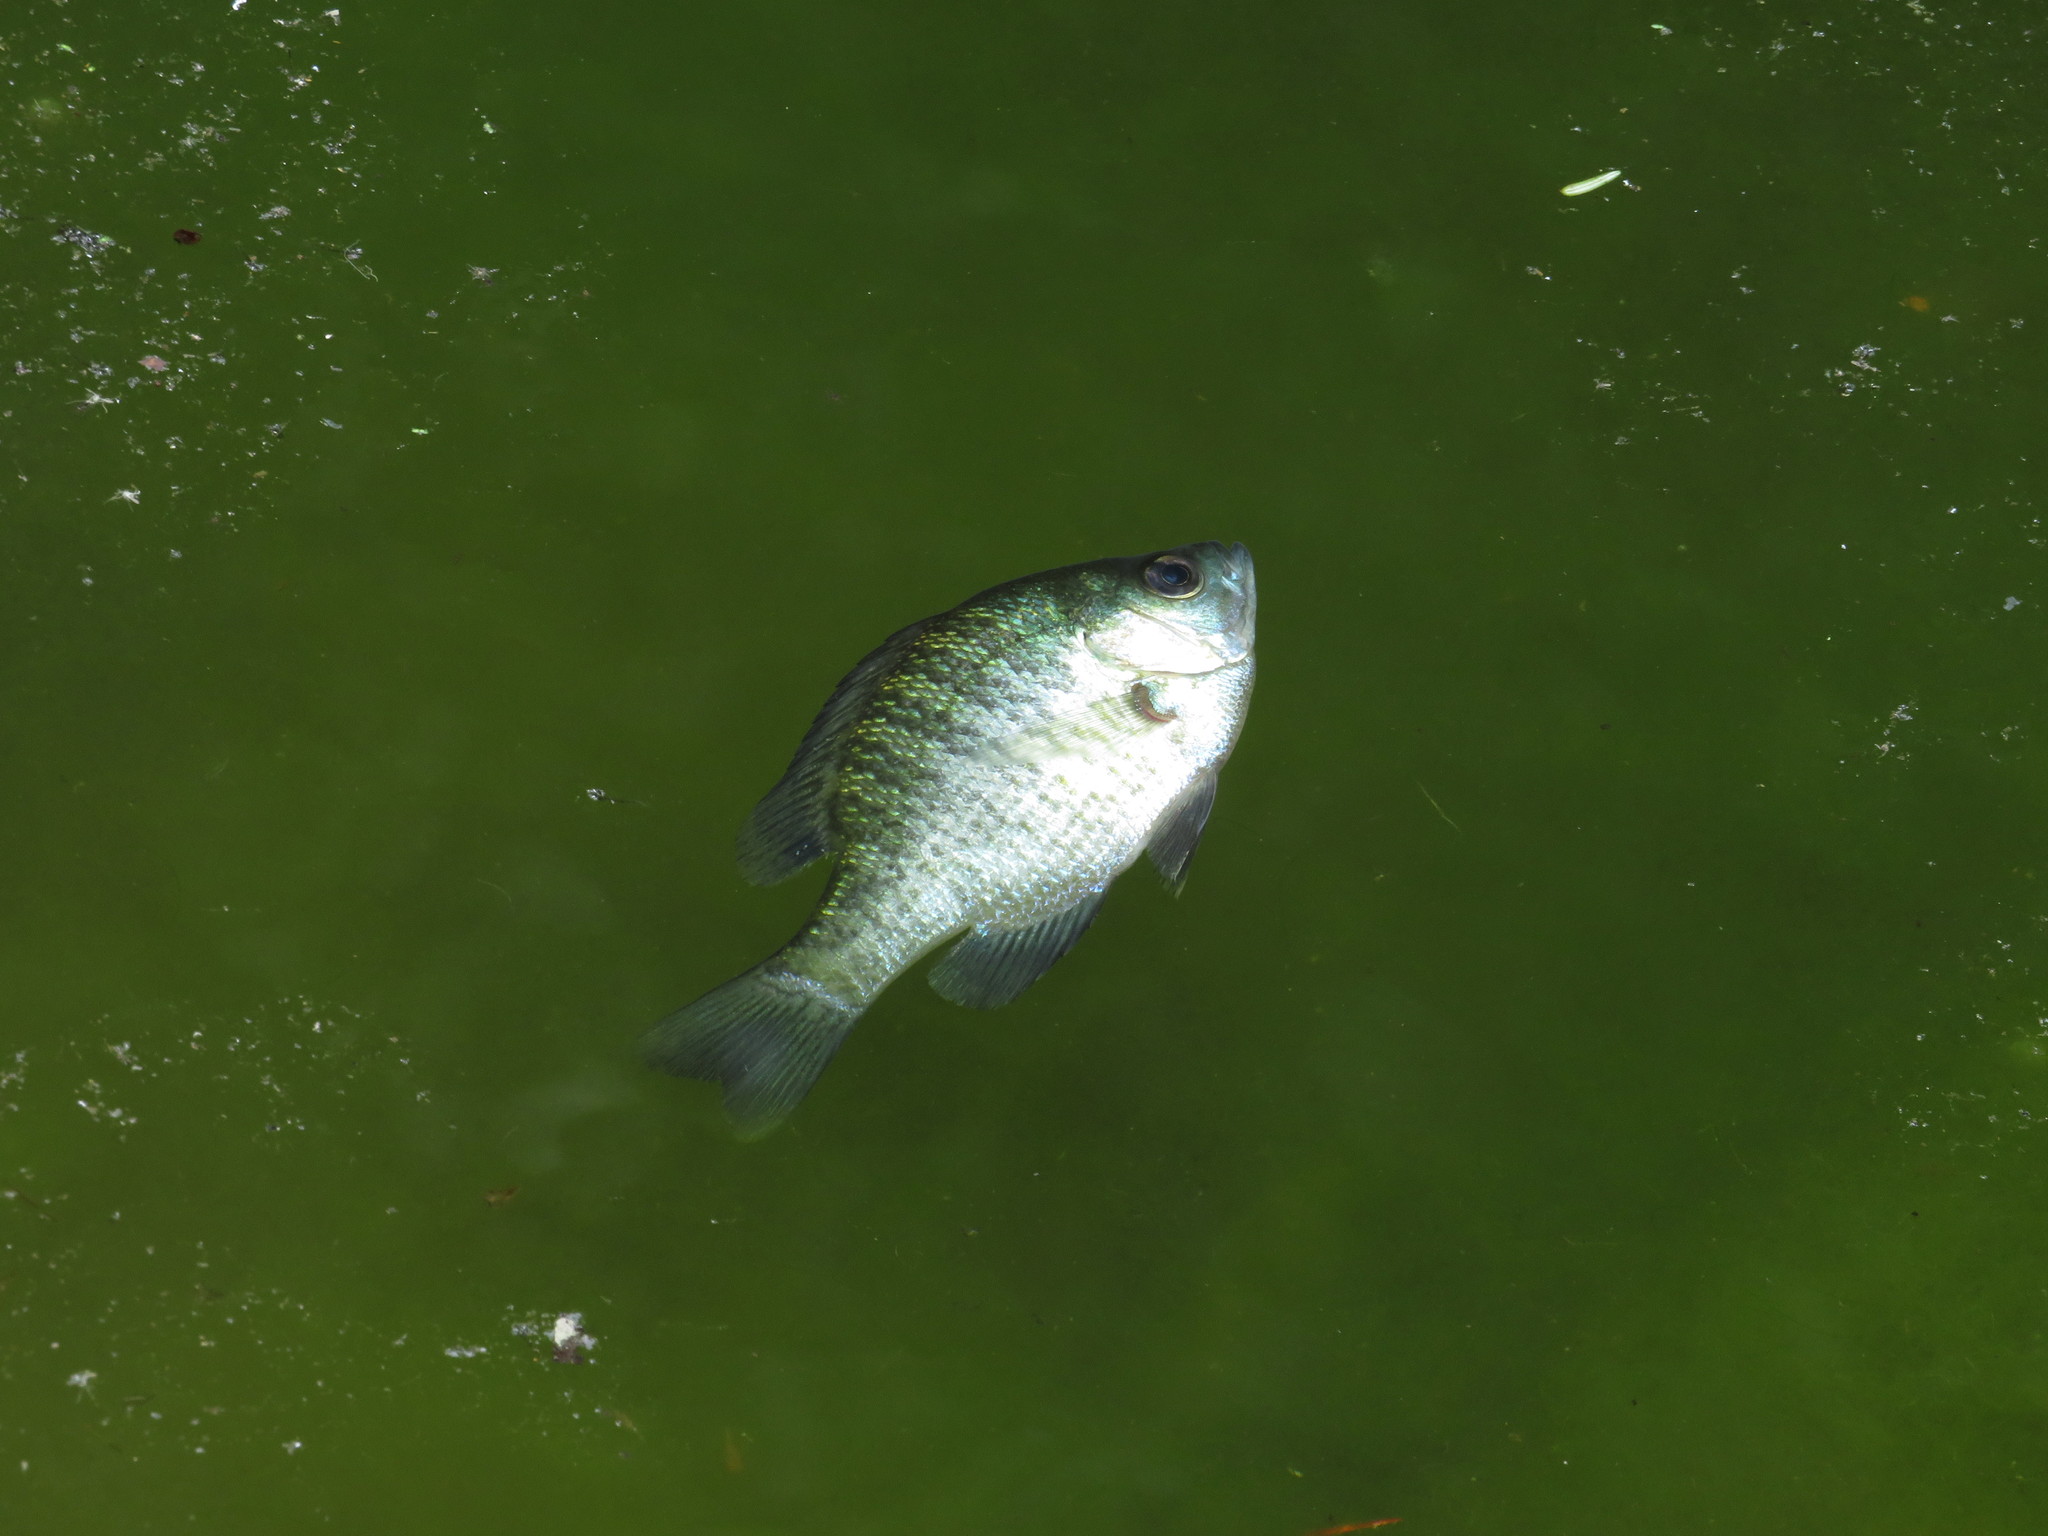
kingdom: Animalia
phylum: Chordata
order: Perciformes
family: Centrarchidae
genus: Lepomis
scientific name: Lepomis macrochirus
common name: Bluegill
